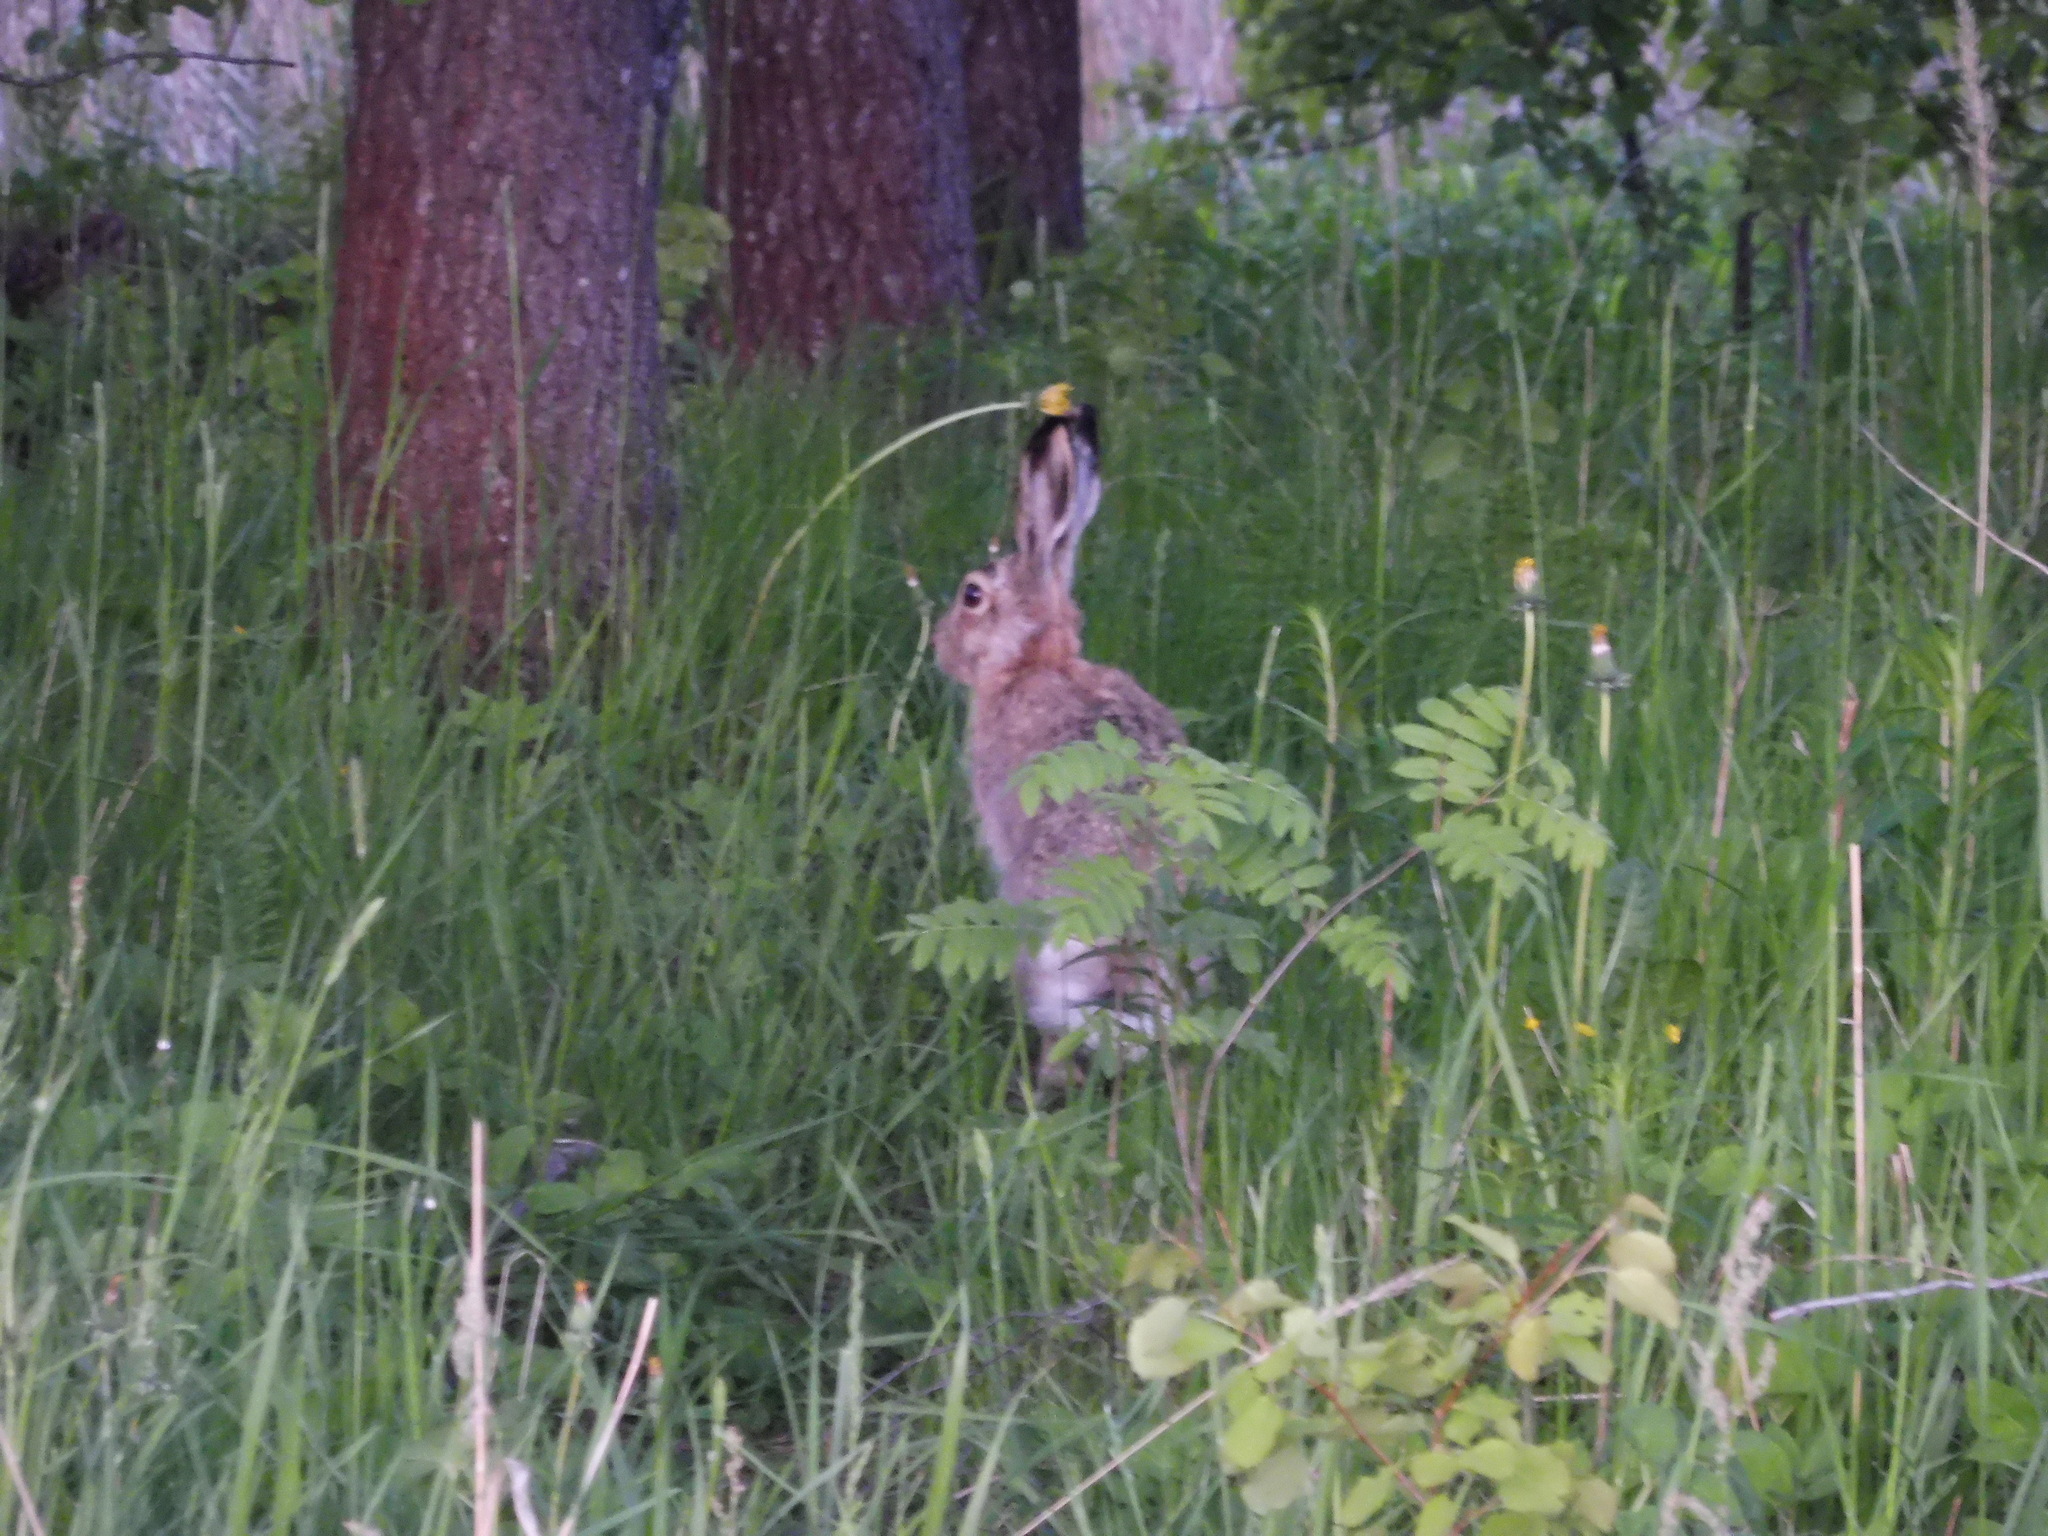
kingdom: Animalia
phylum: Chordata
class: Mammalia
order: Lagomorpha
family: Leporidae
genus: Lepus
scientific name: Lepus europaeus
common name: European hare
